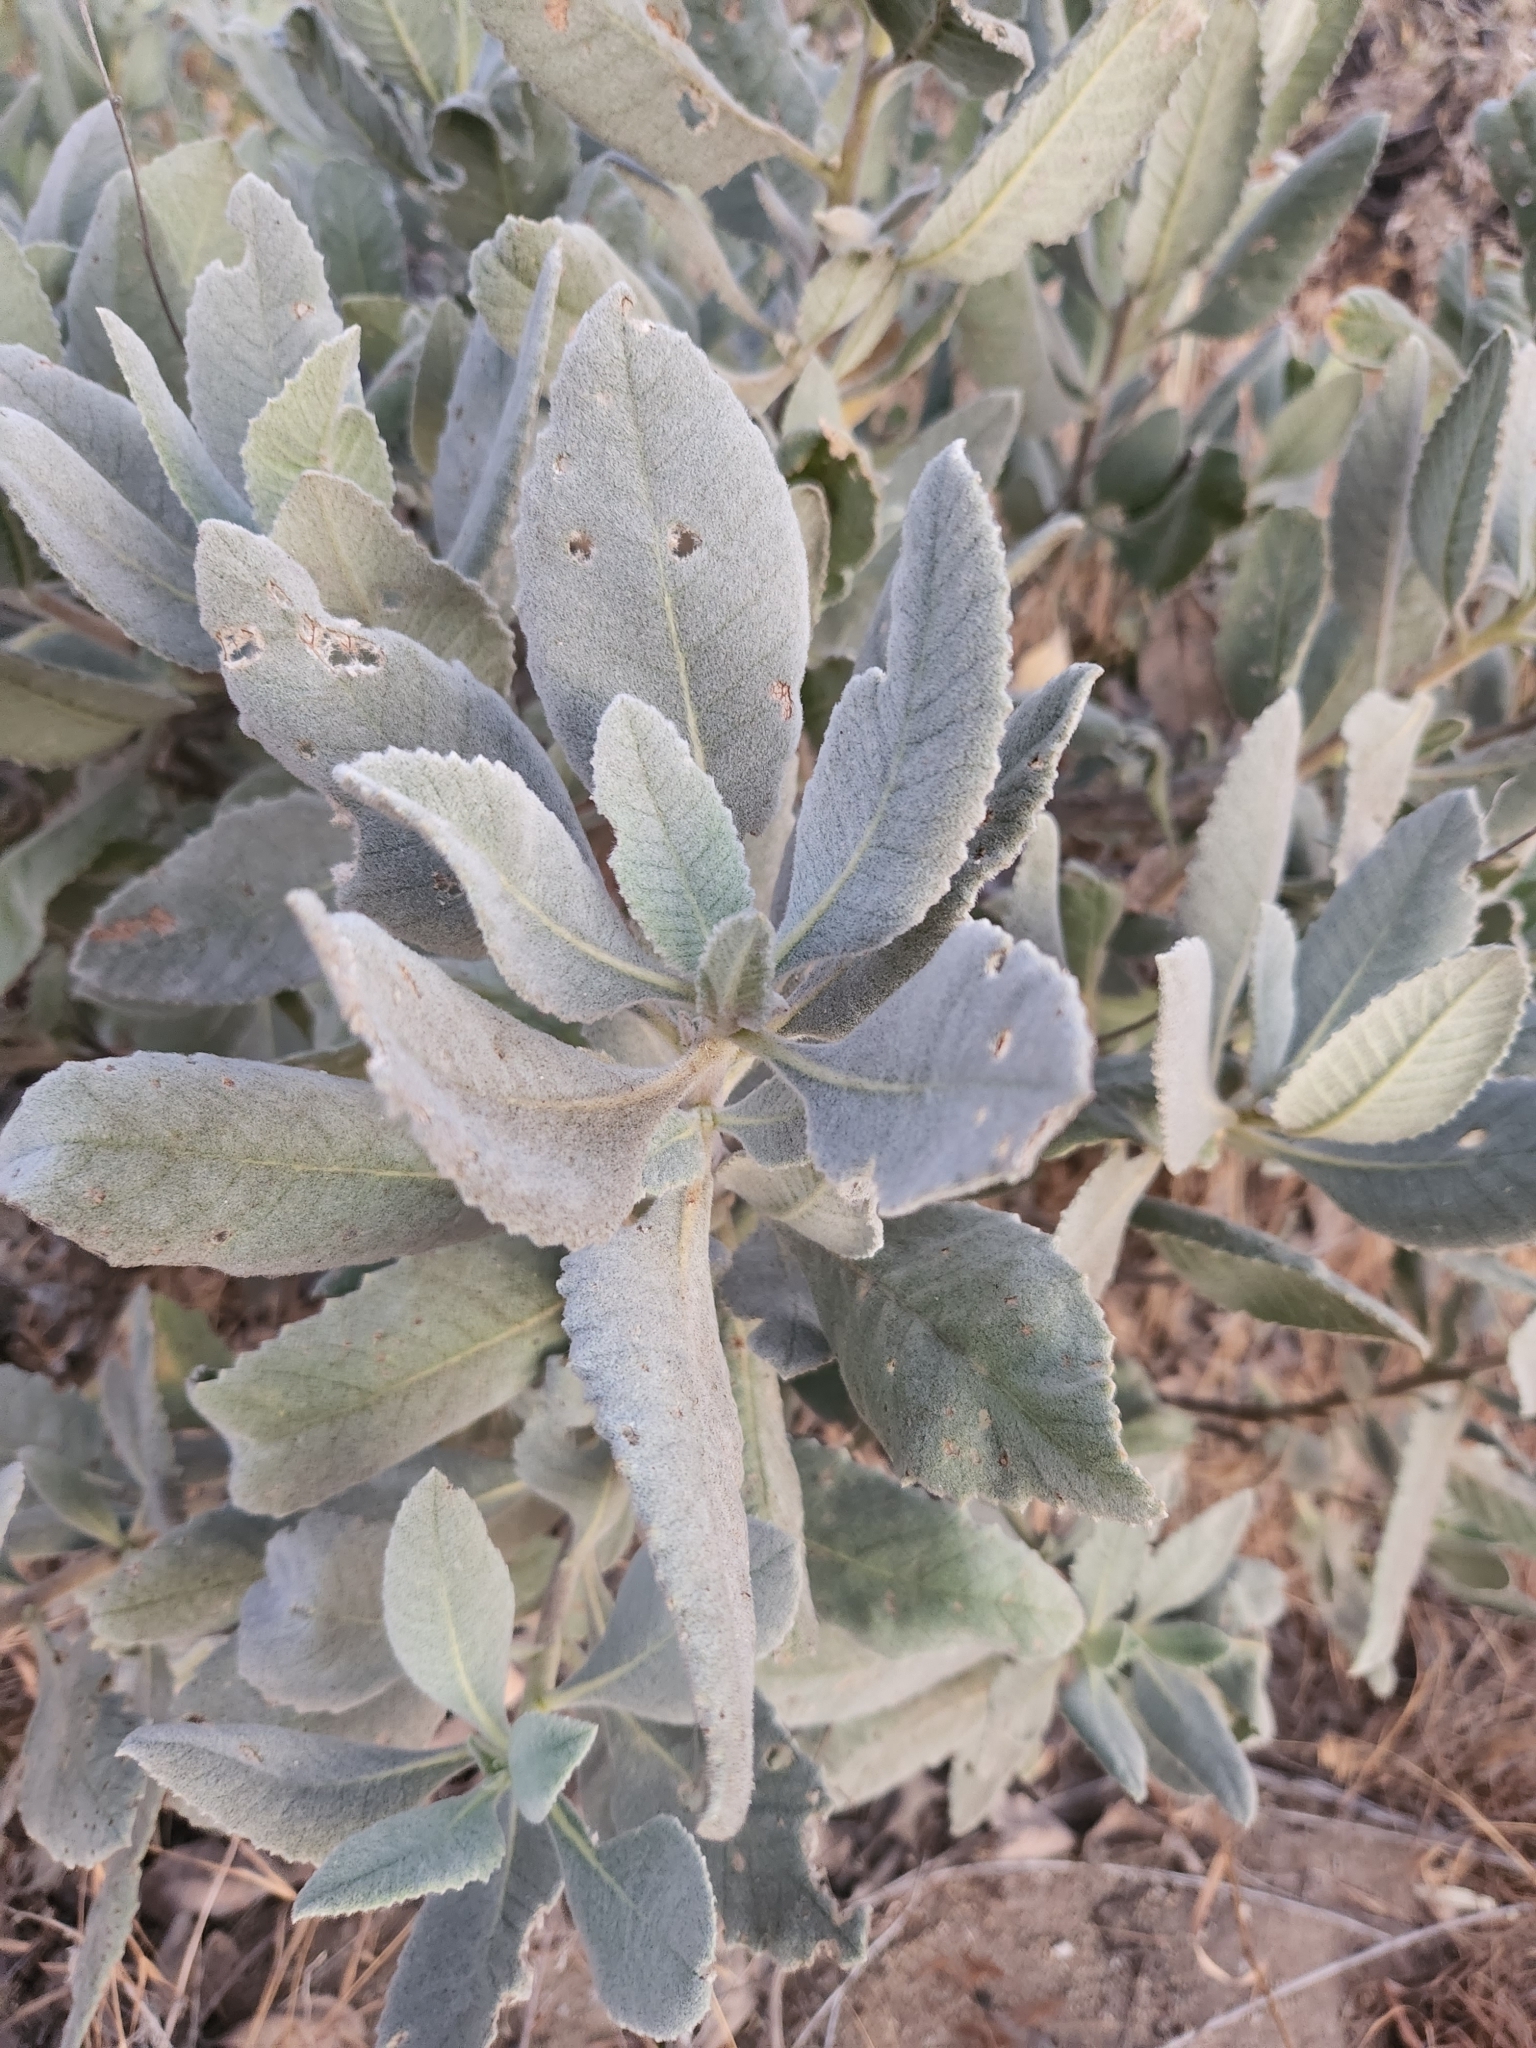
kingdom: Plantae
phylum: Tracheophyta
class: Magnoliopsida
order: Boraginales
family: Namaceae
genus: Eriodictyon
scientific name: Eriodictyon crassifolium
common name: Thick-leaf yerba-santa
